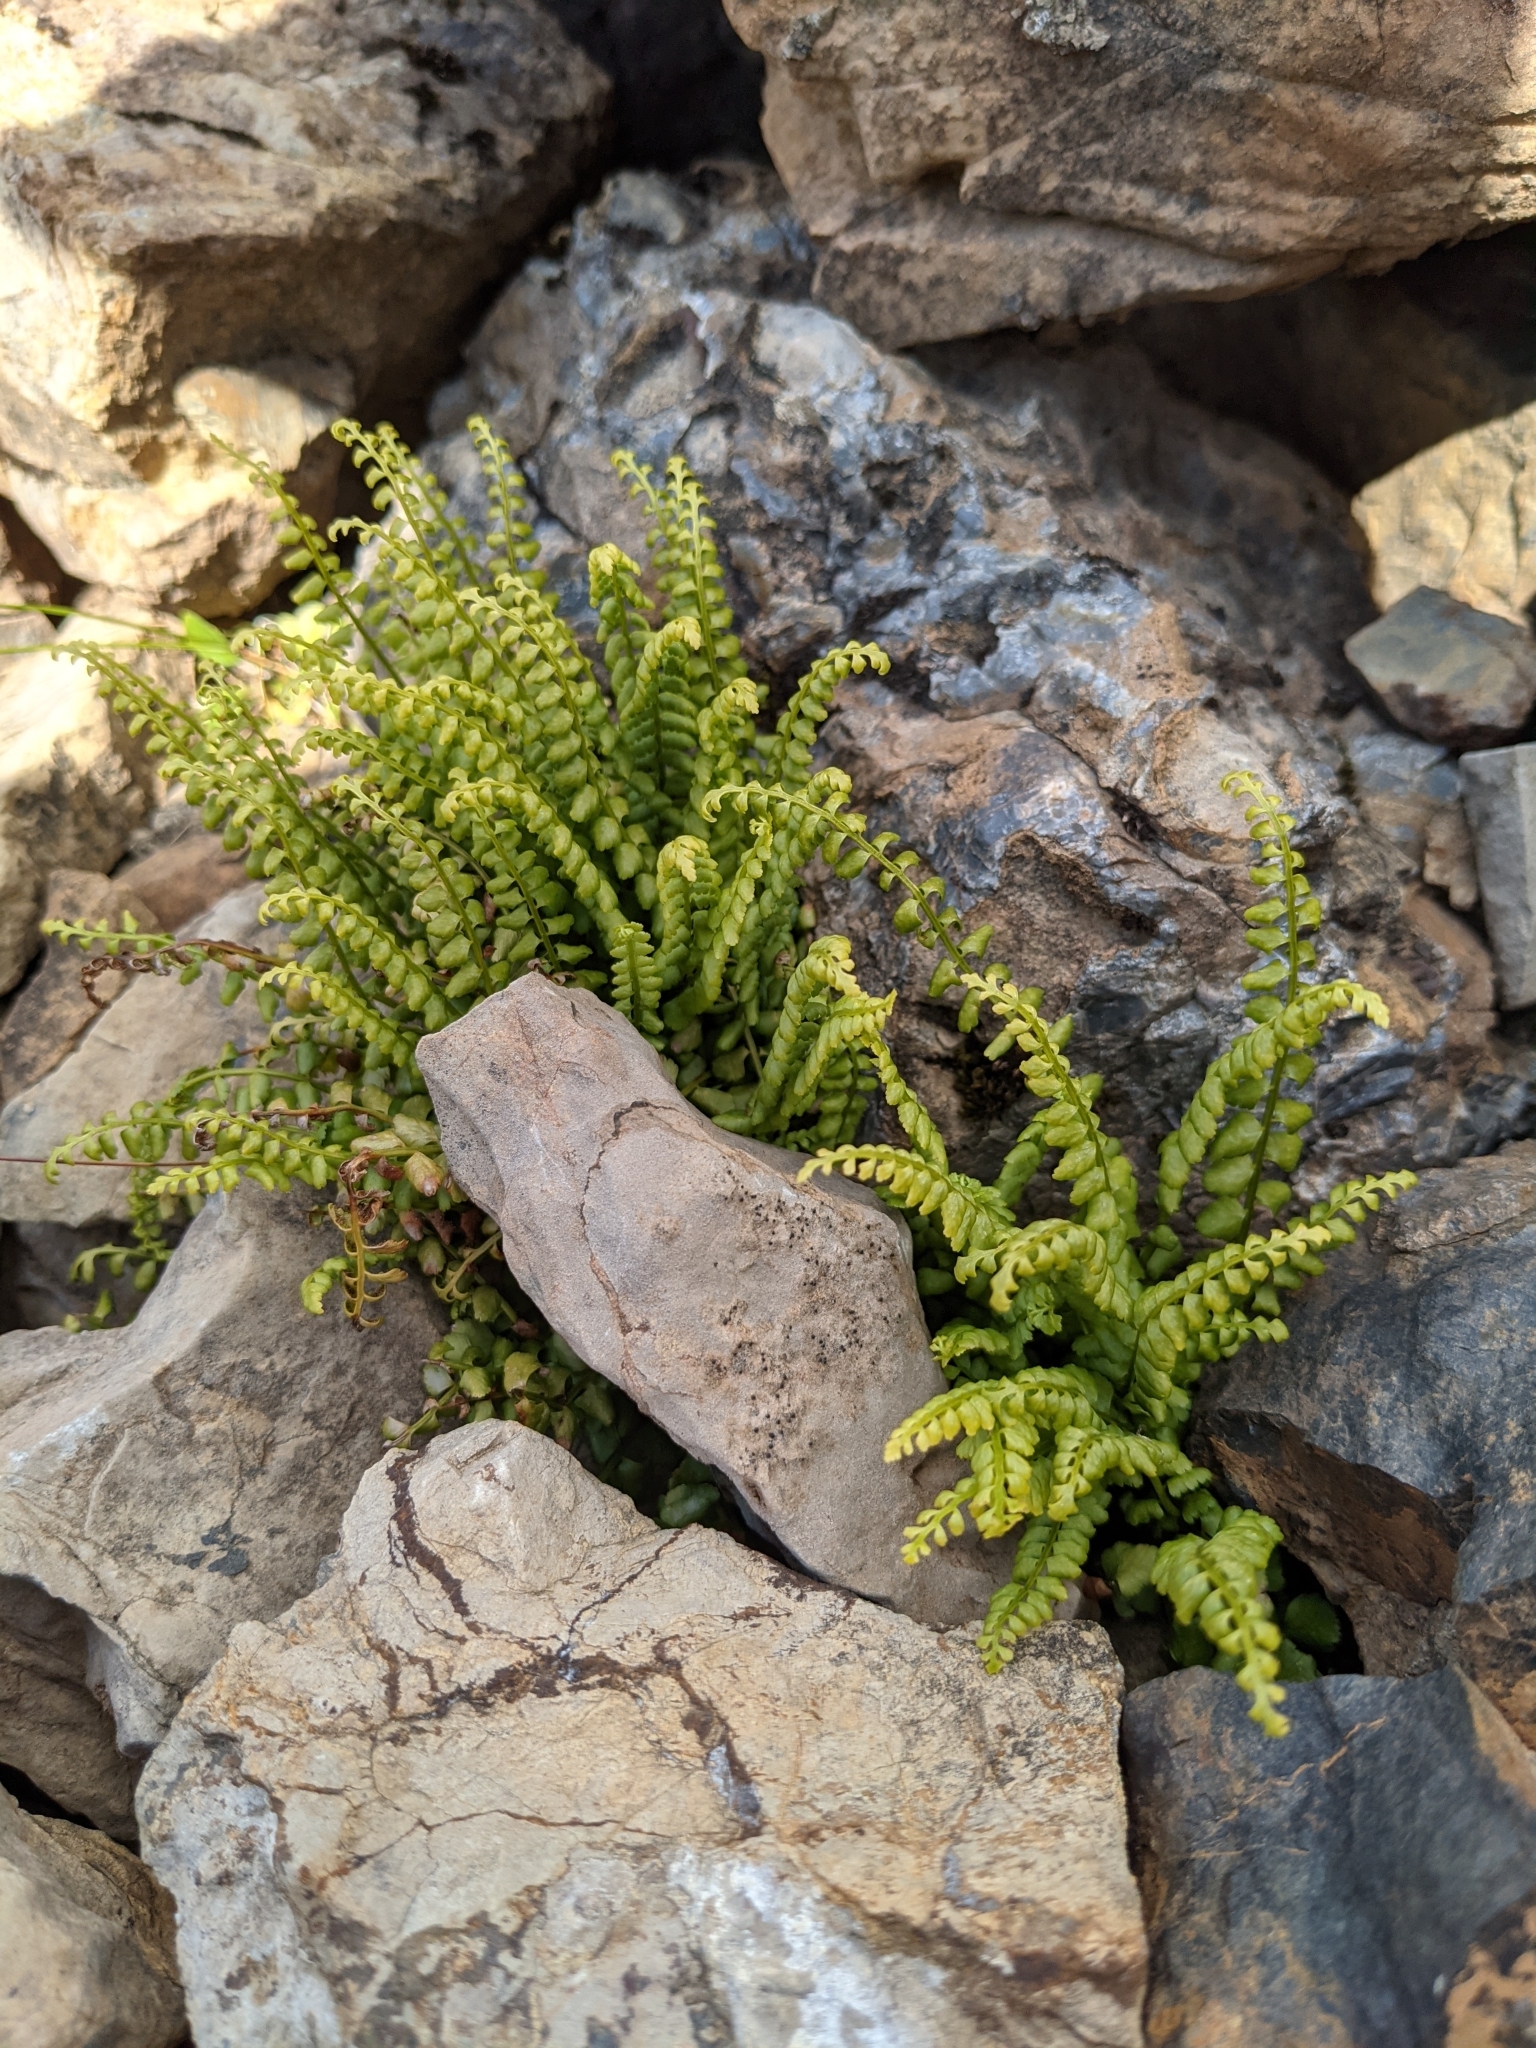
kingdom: Plantae
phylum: Tracheophyta
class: Polypodiopsida
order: Polypodiales
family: Aspleniaceae
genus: Asplenium
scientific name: Asplenium viride
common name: Green spleenwort
